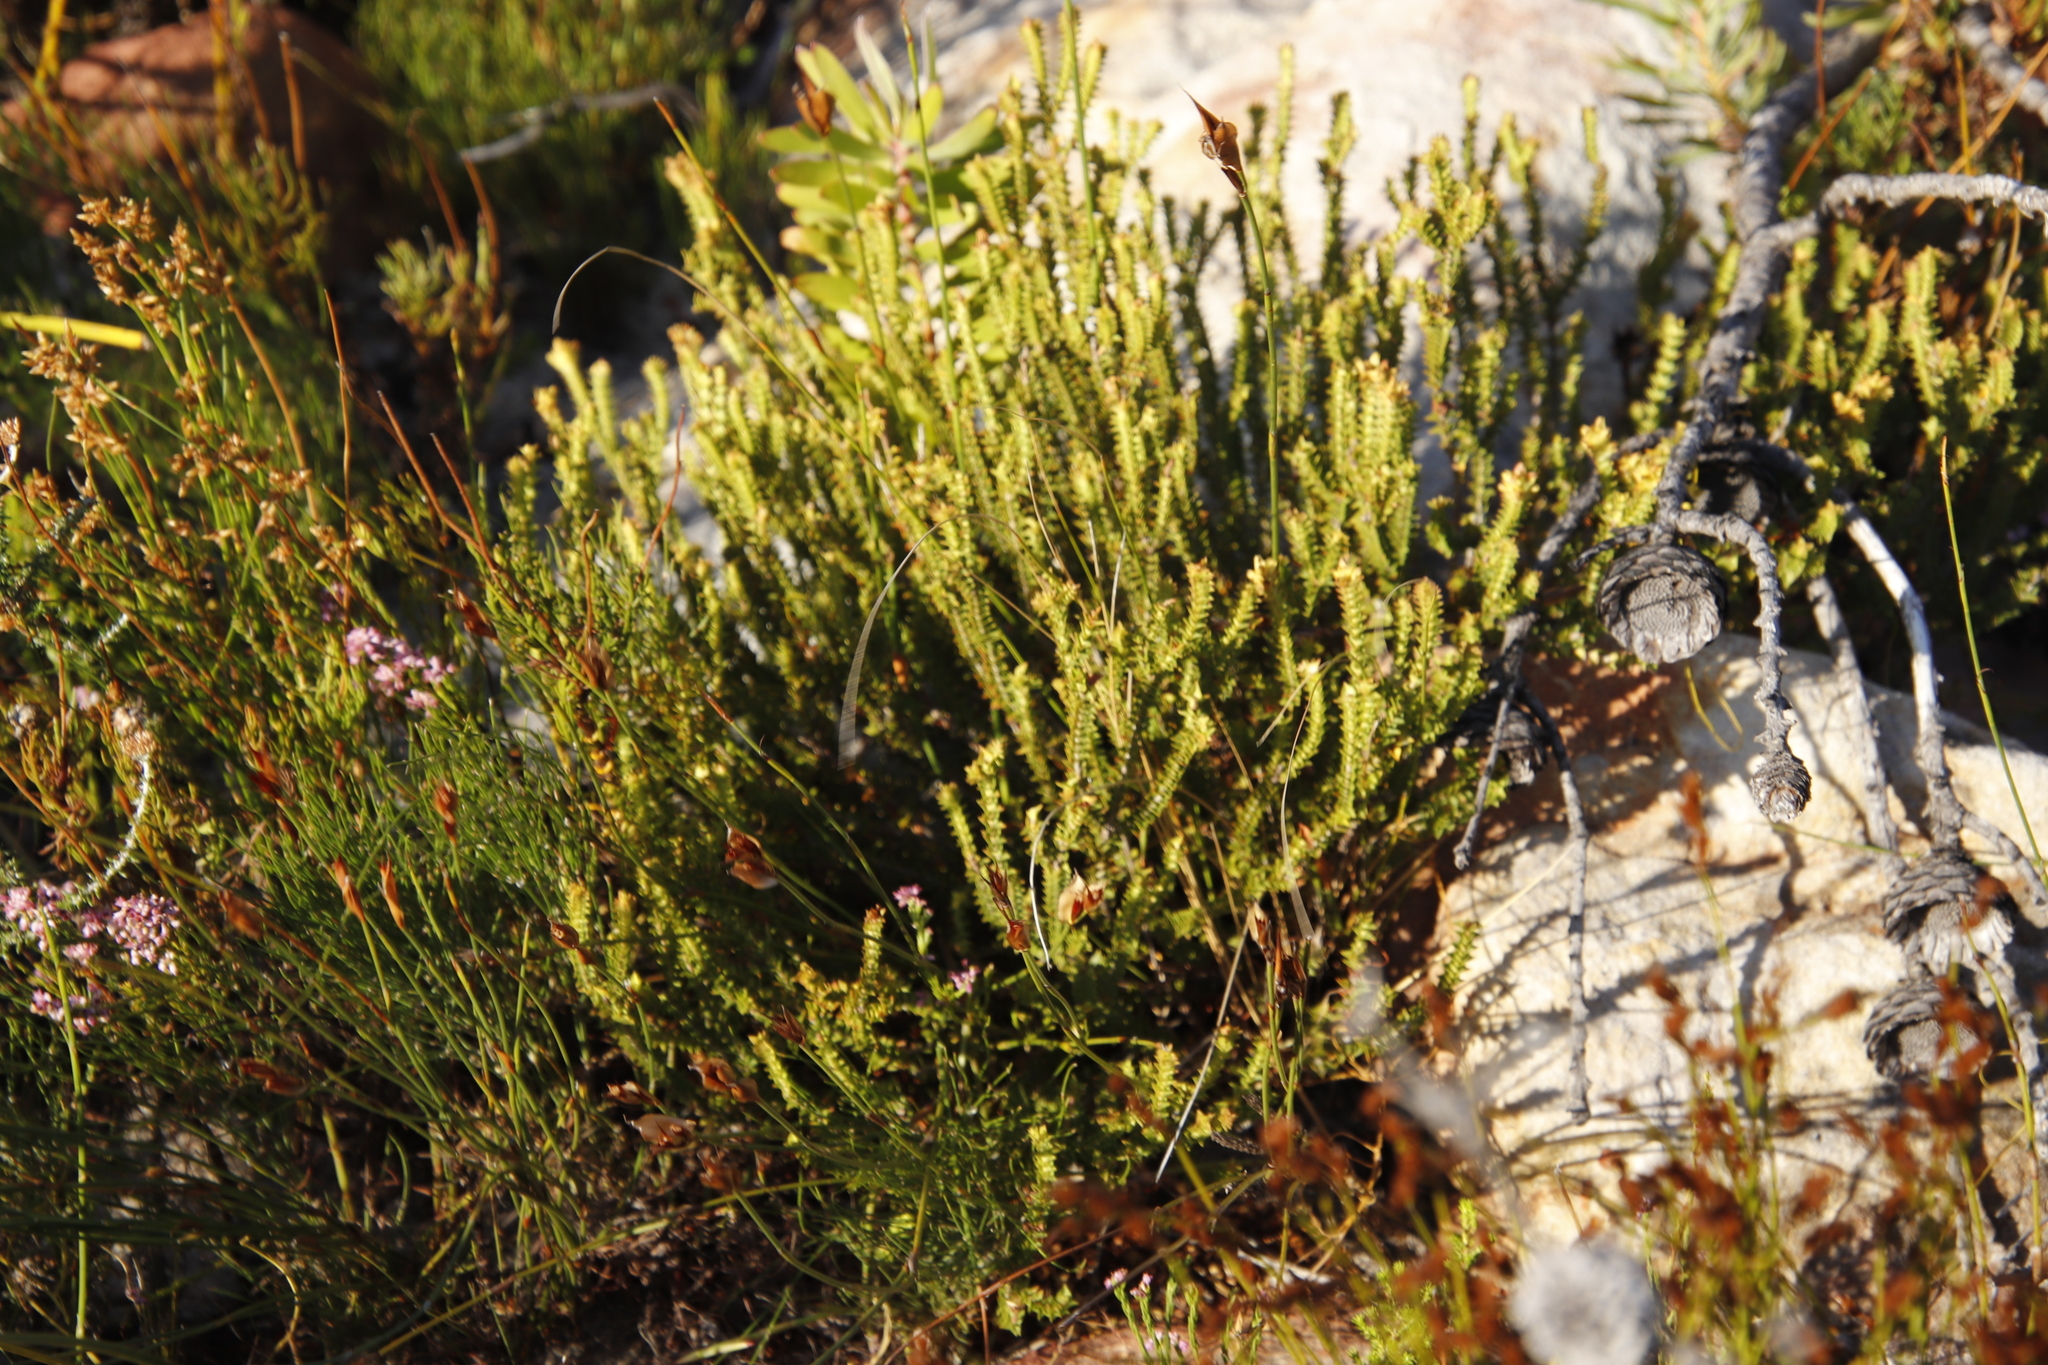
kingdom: Plantae
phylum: Tracheophyta
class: Magnoliopsida
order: Myrtales
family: Penaeaceae
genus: Penaea
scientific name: Penaea mucronata
